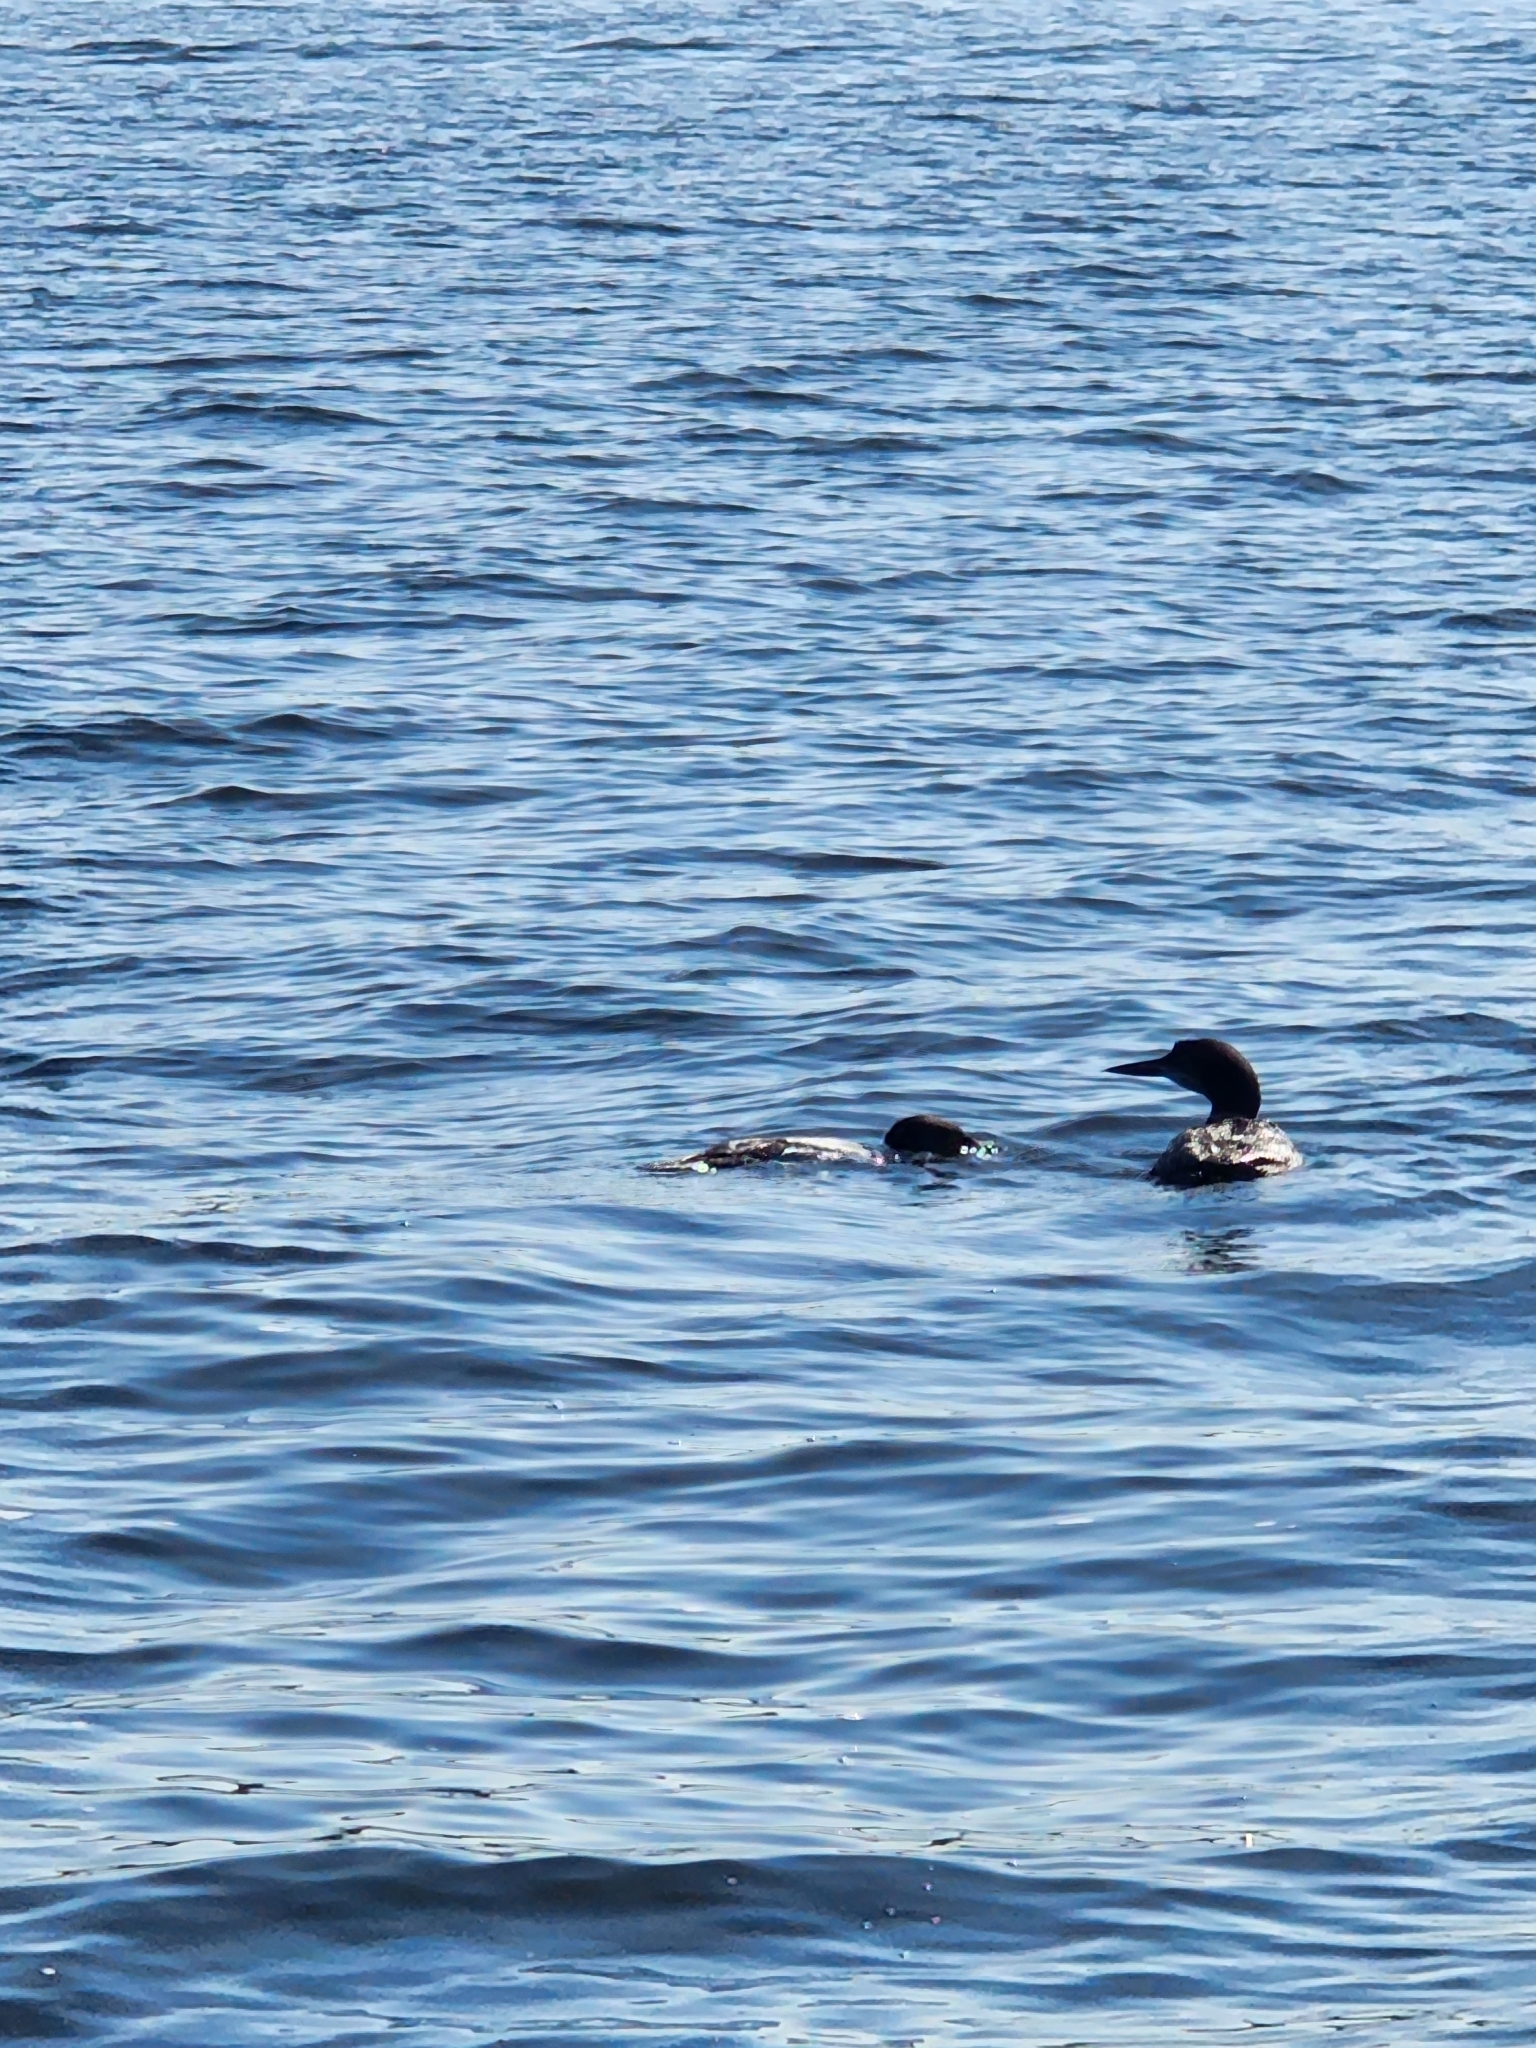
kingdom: Animalia
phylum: Chordata
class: Aves
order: Gaviiformes
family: Gaviidae
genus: Gavia
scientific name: Gavia immer
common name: Common loon
